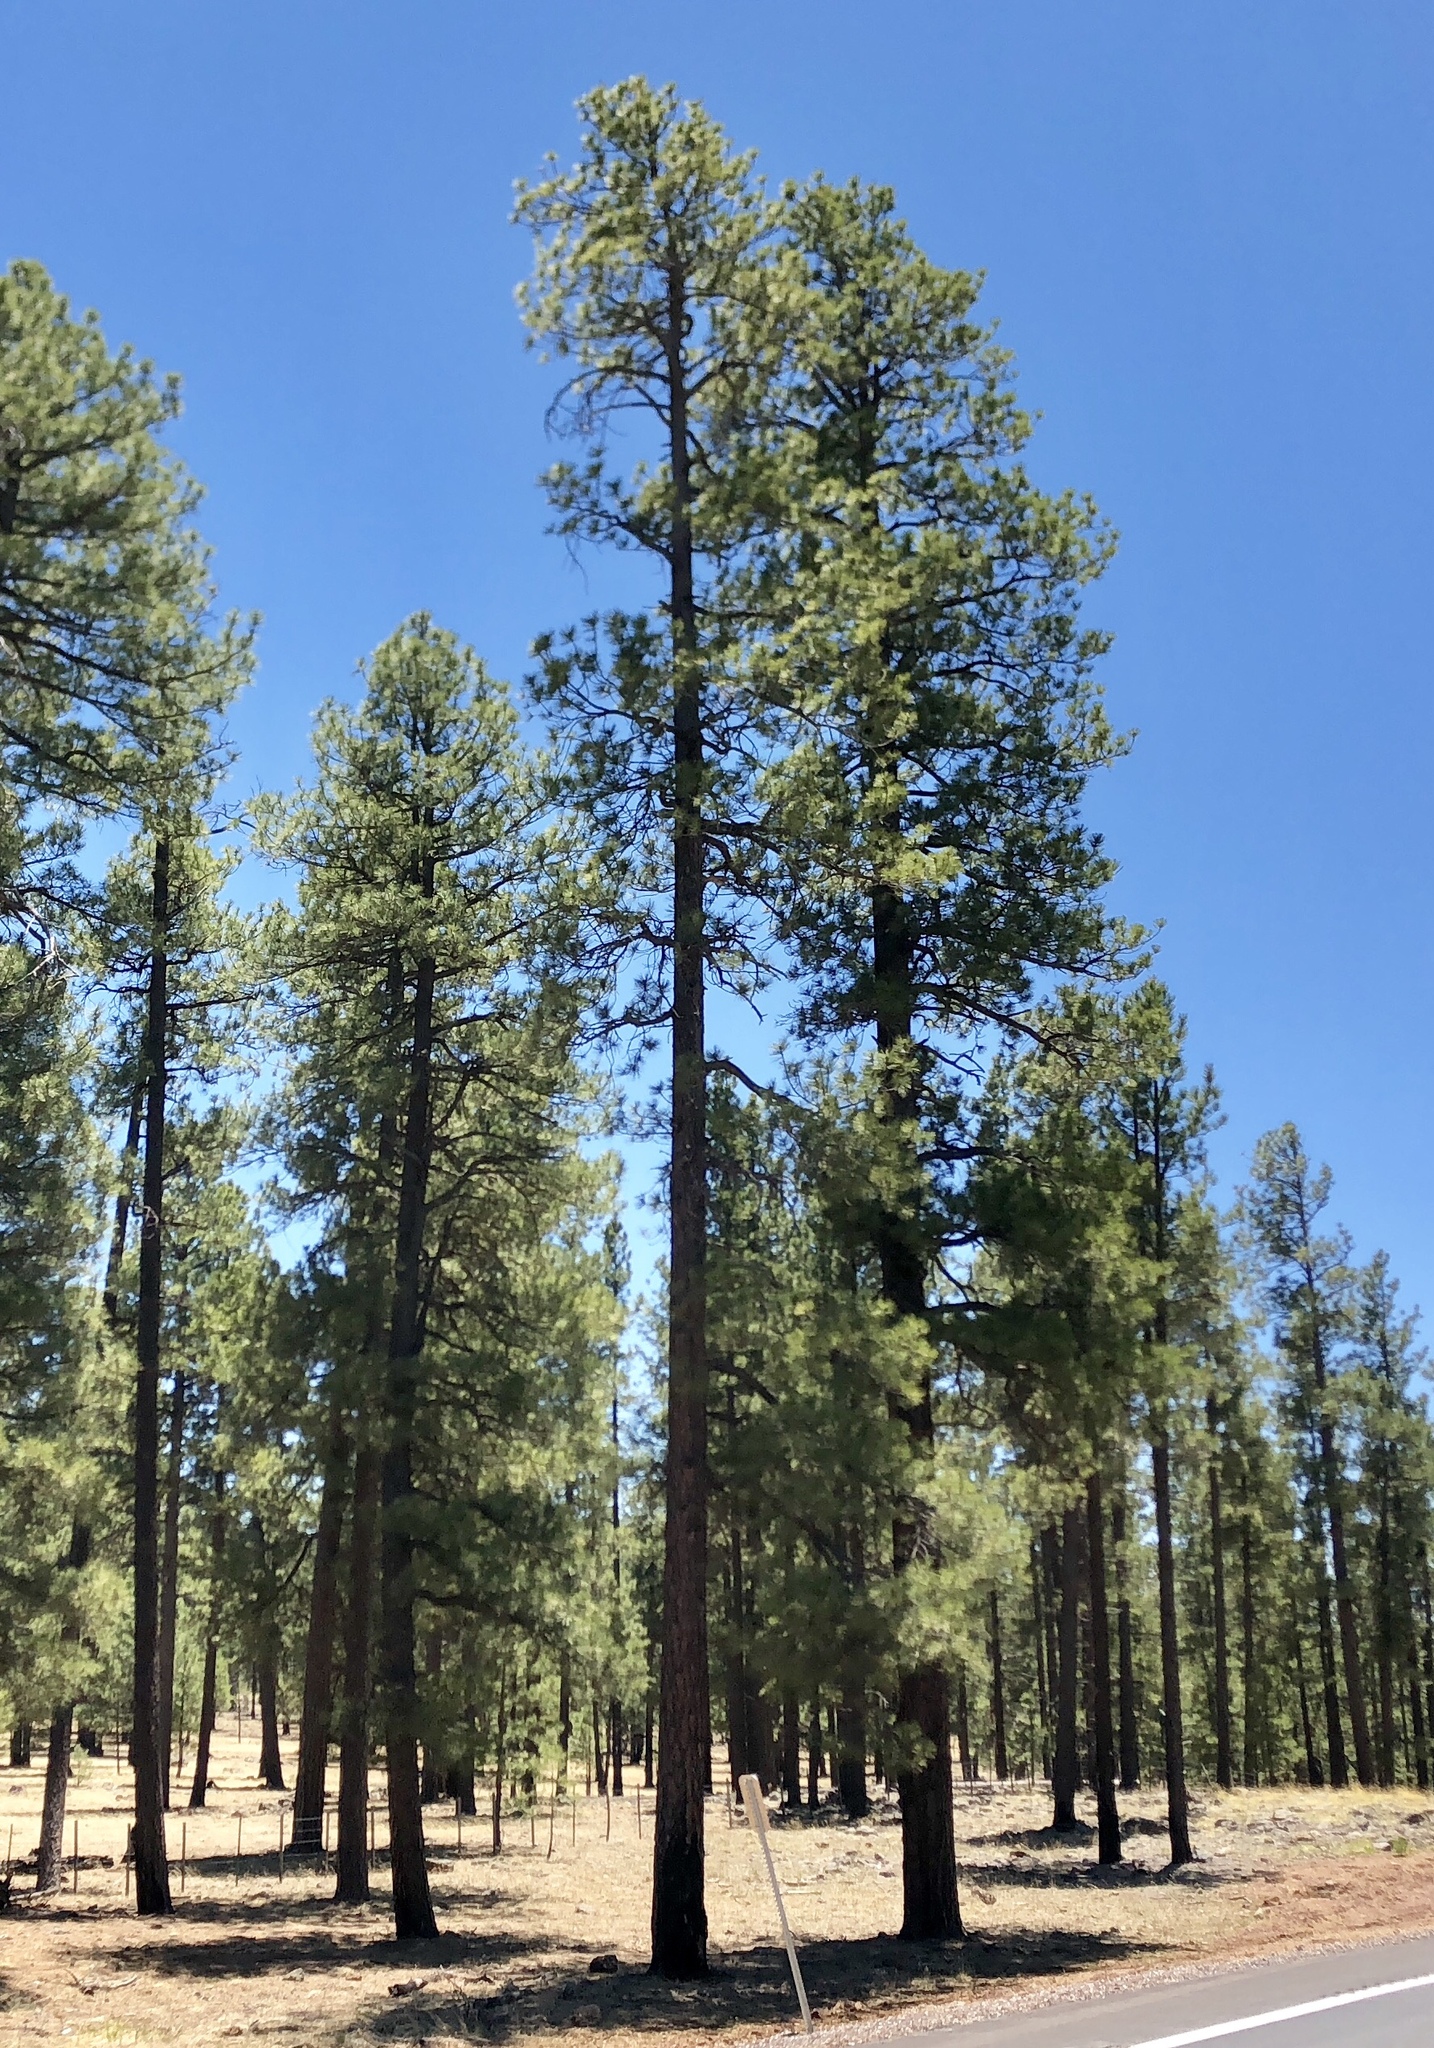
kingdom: Plantae
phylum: Tracheophyta
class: Pinopsida
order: Pinales
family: Pinaceae
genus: Pinus
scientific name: Pinus ponderosa
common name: Western yellow-pine
